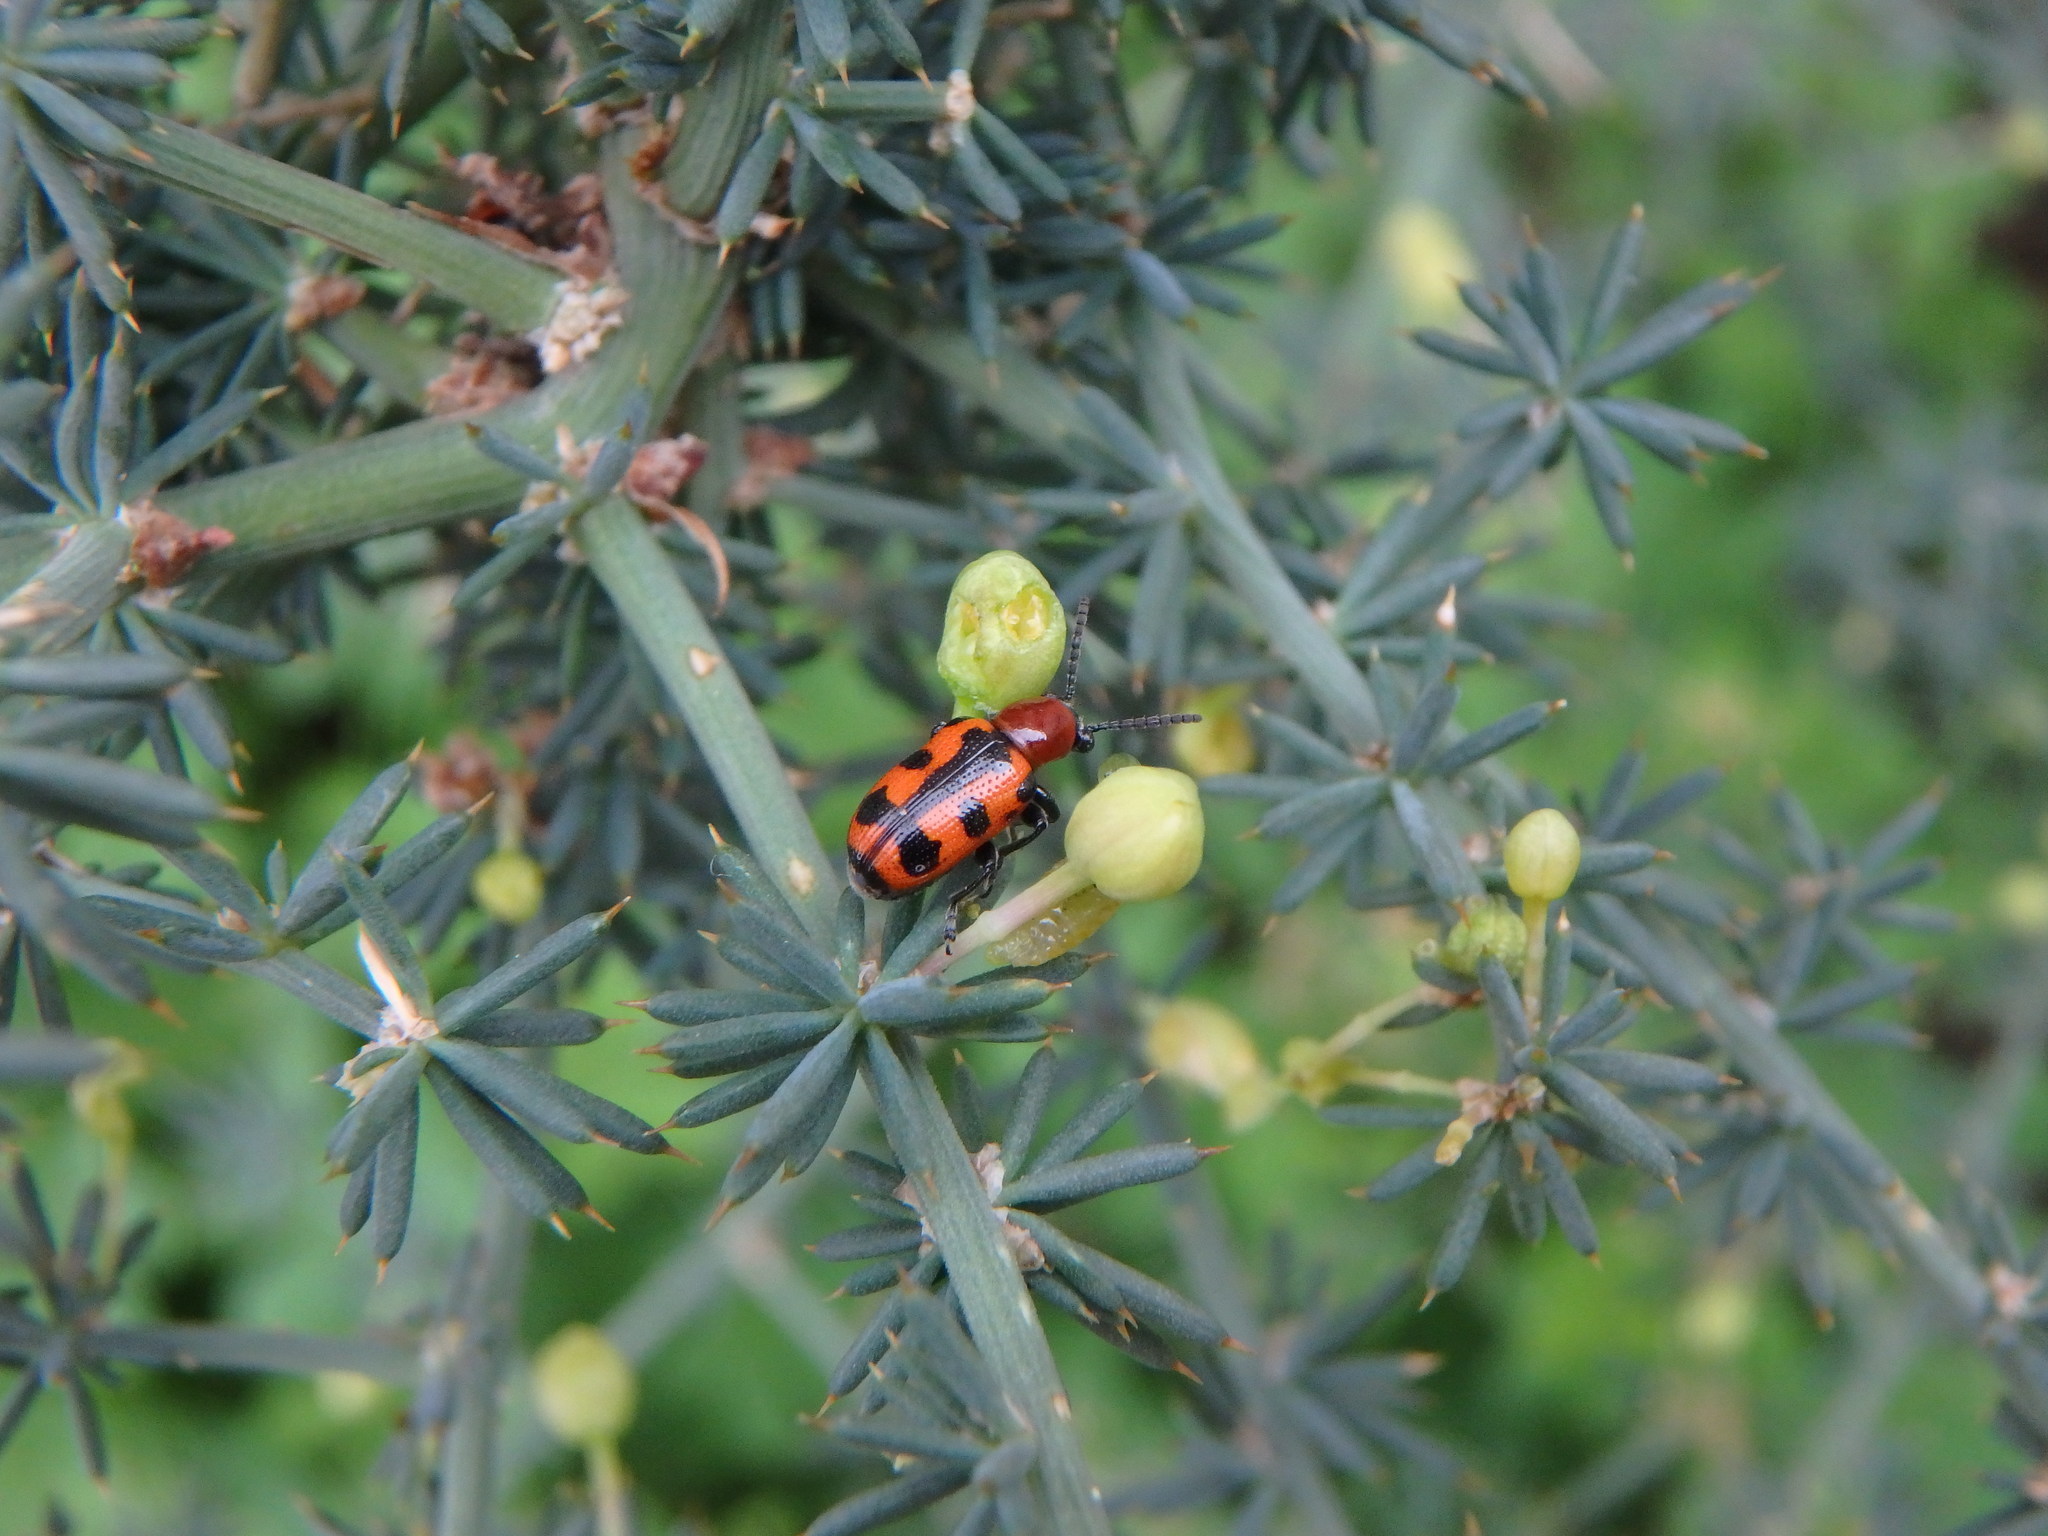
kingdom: Animalia
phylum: Arthropoda
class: Insecta
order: Coleoptera
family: Chrysomelidae
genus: Crioceris
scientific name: Crioceris bicruciata
